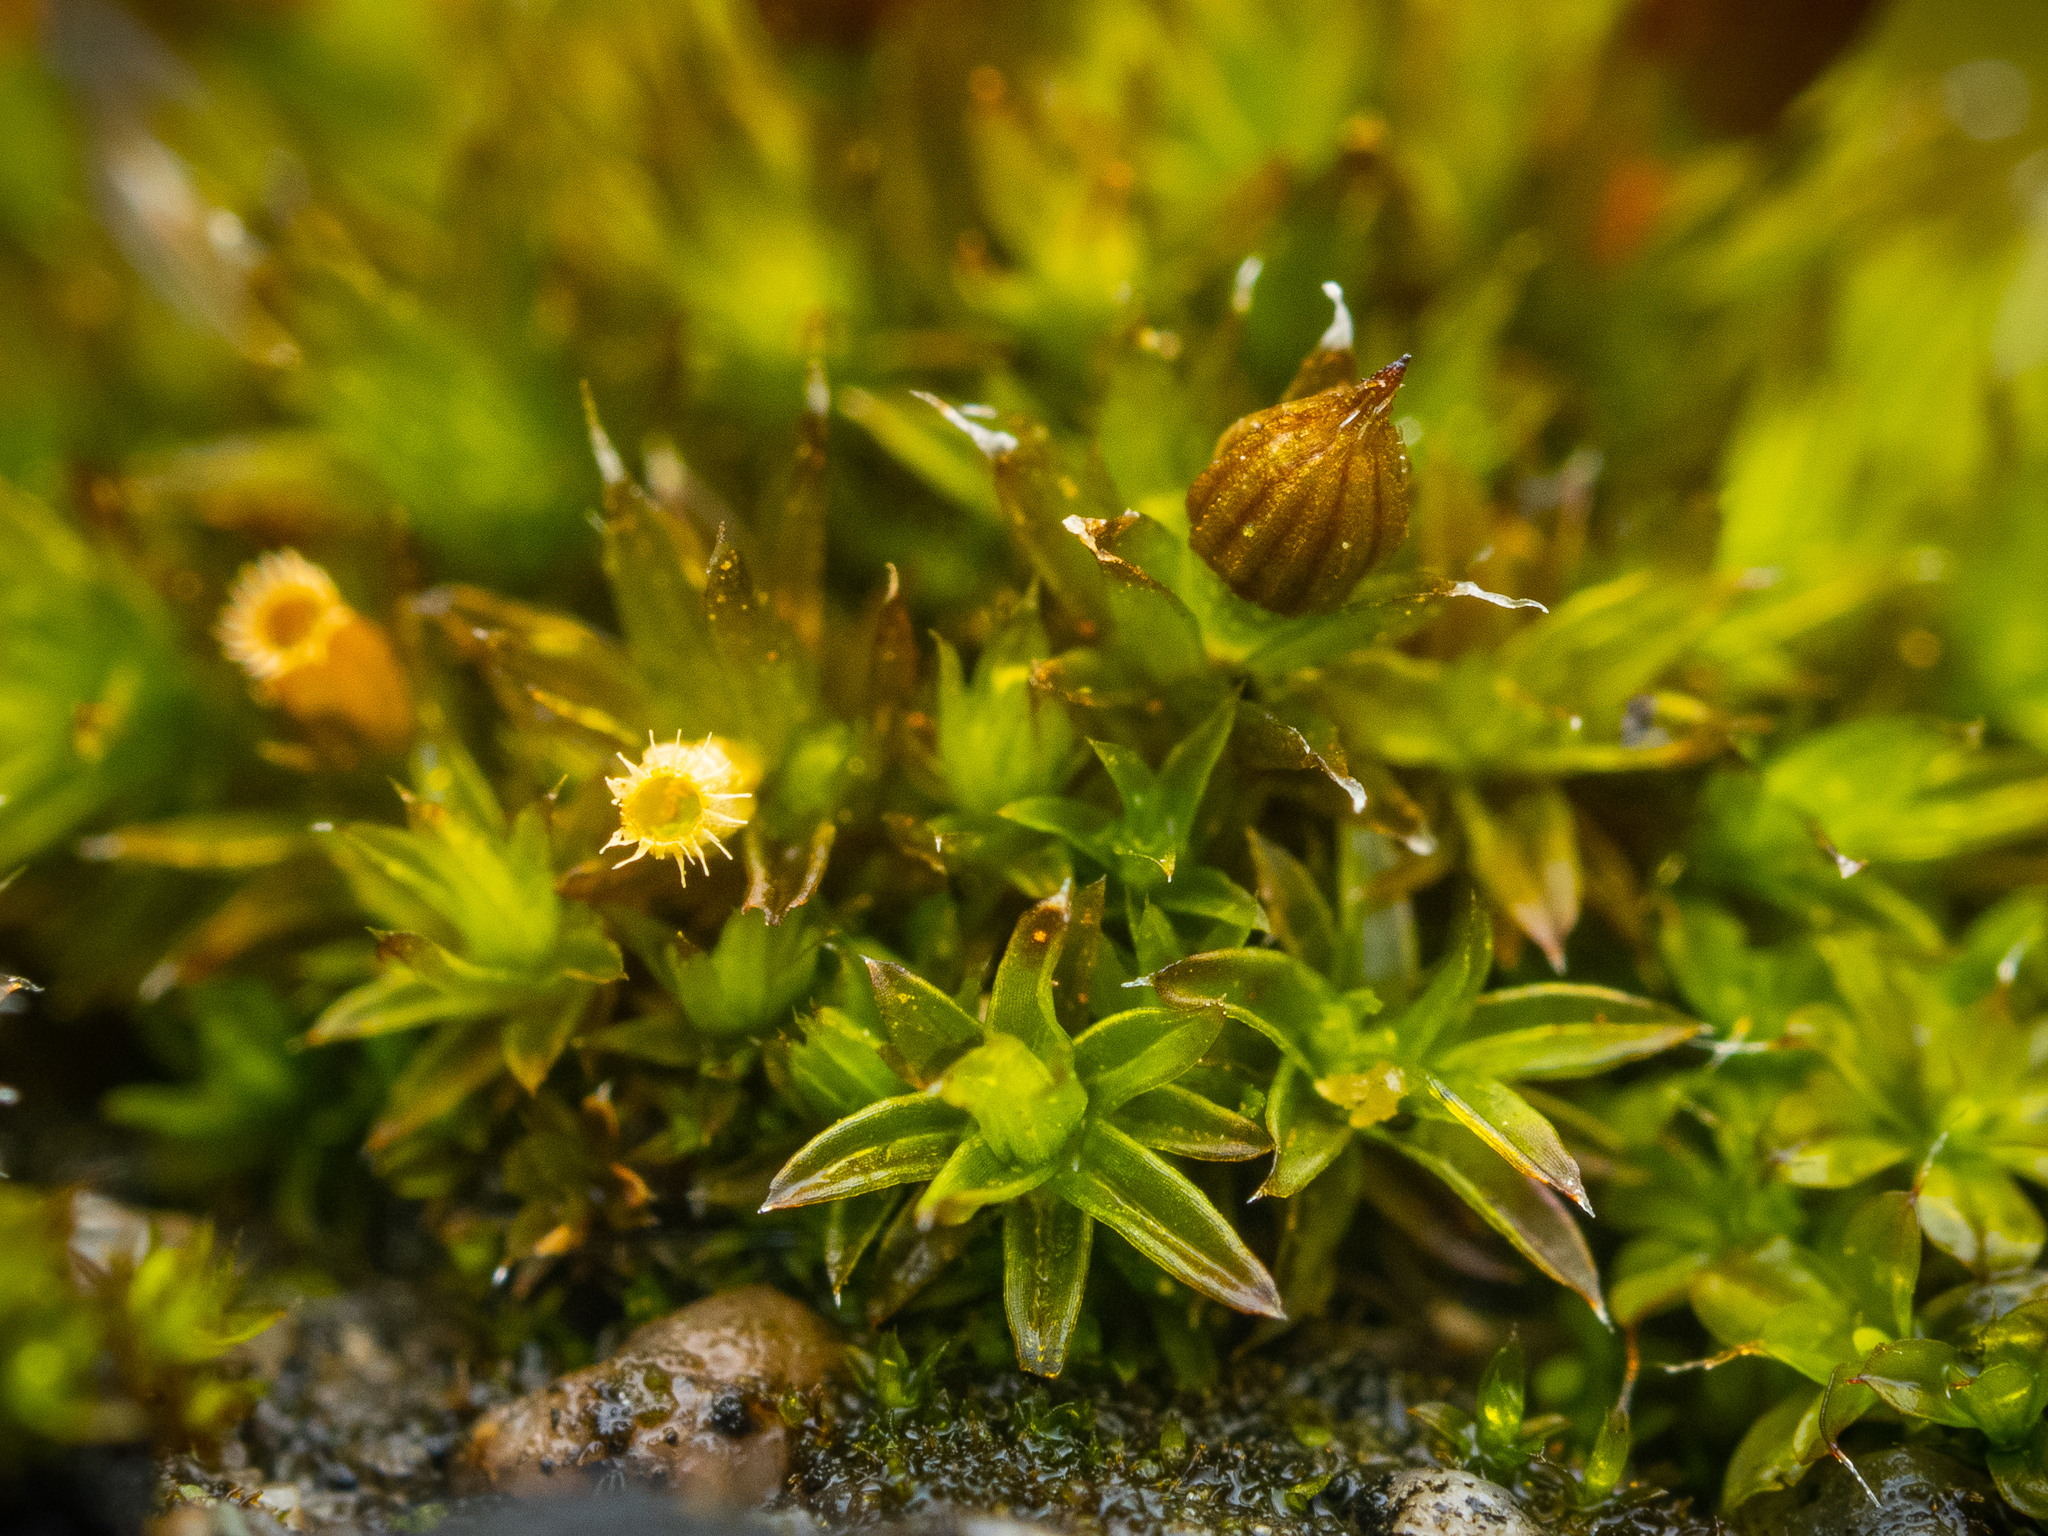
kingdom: Plantae
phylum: Bryophyta
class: Bryopsida
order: Orthotrichales
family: Orthotrichaceae
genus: Orthotrichum
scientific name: Orthotrichum diaphanum
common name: White-tipped bristle-moss
